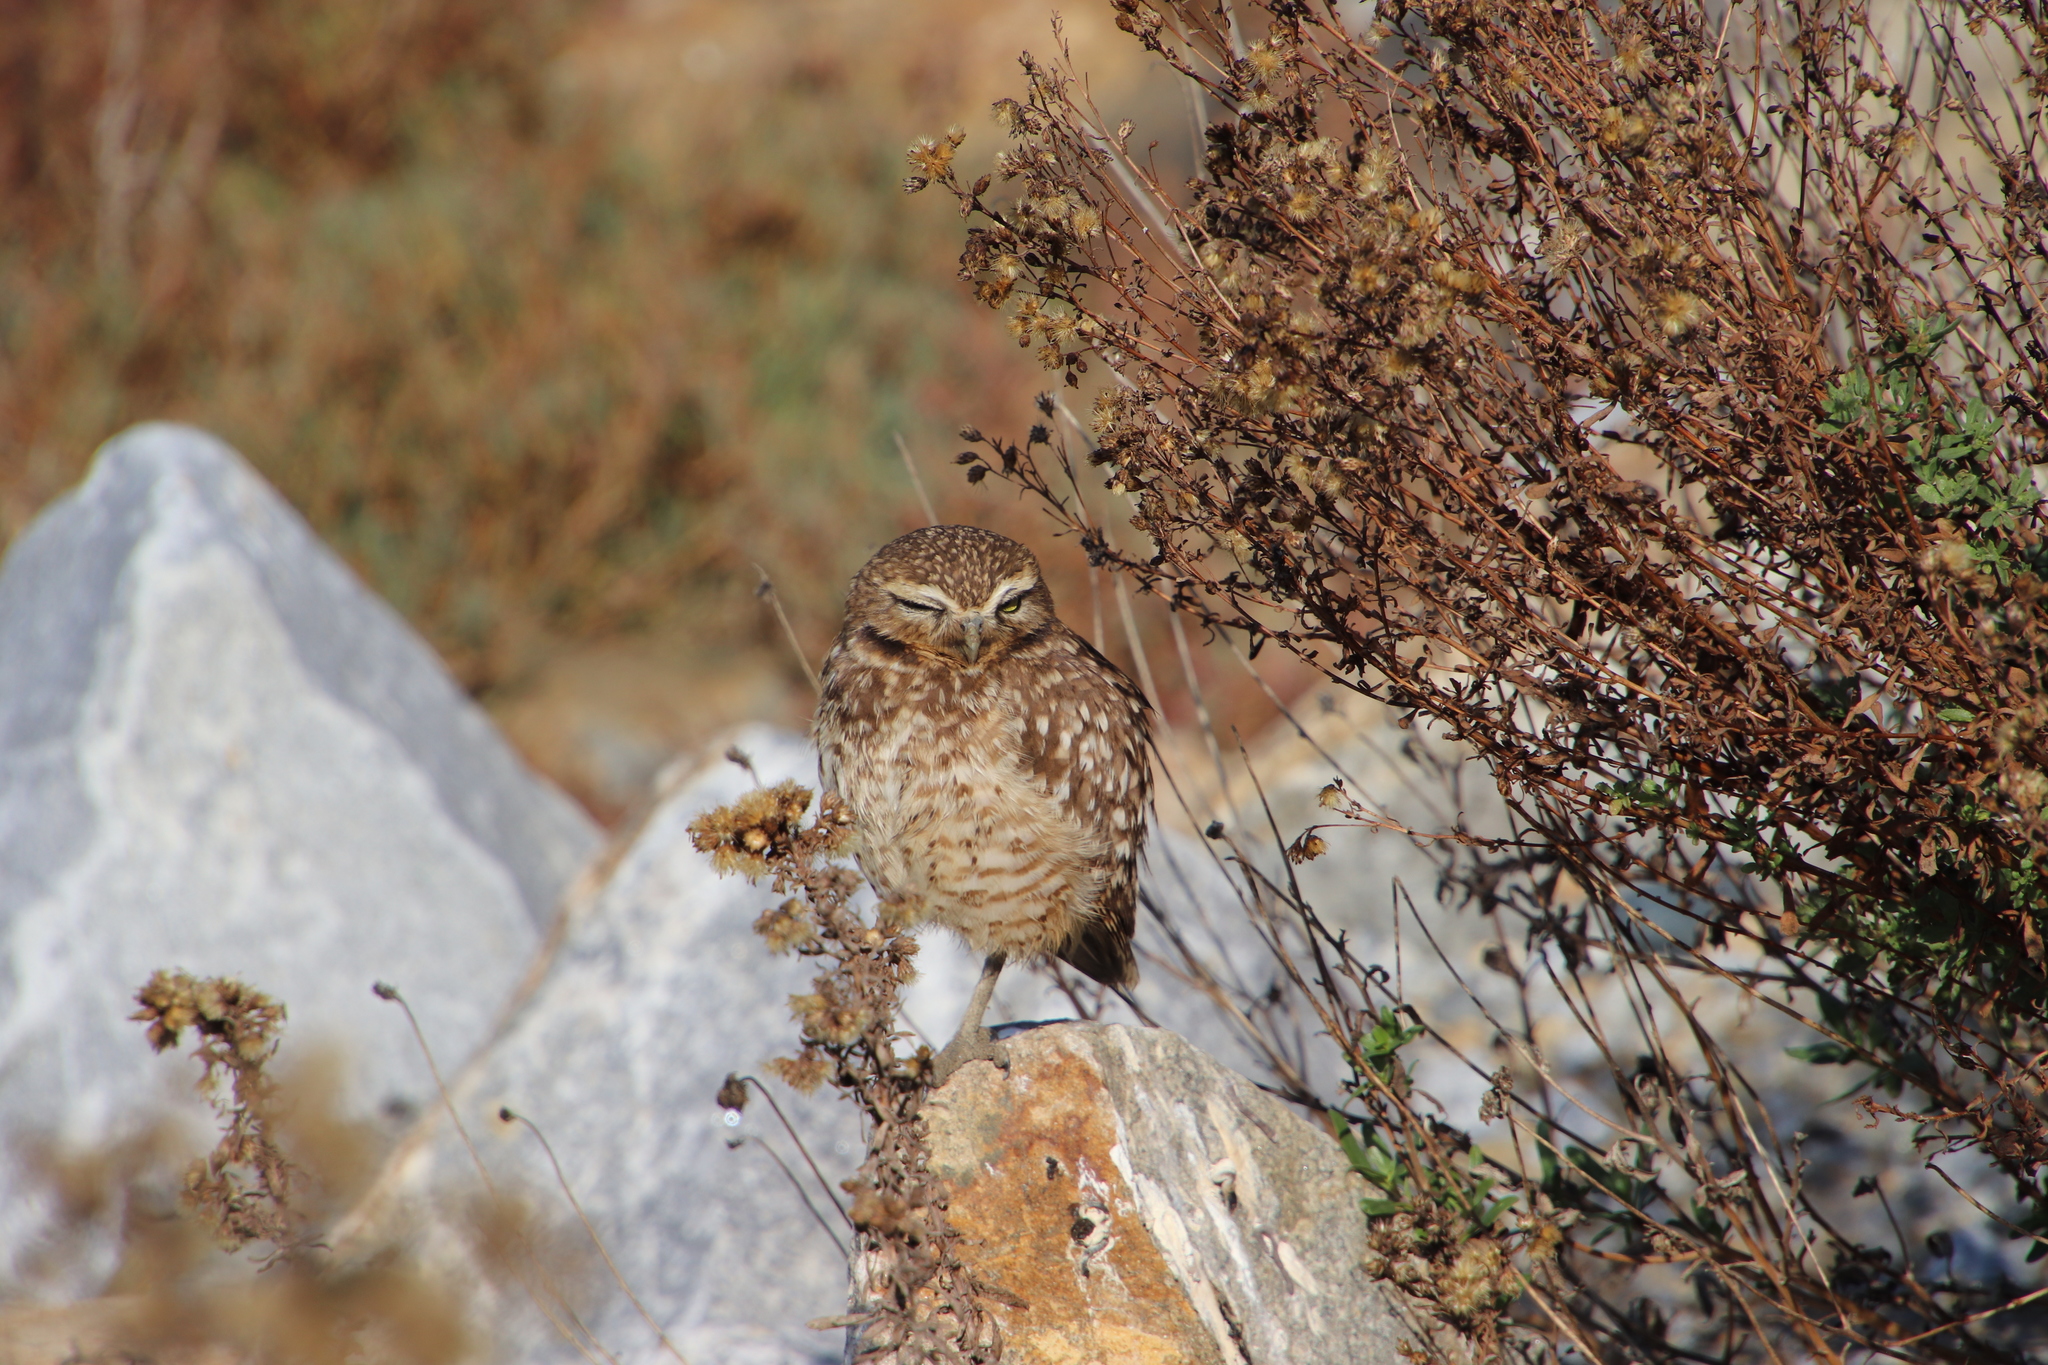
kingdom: Animalia
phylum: Chordata
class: Aves
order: Strigiformes
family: Strigidae
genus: Athene
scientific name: Athene cunicularia
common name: Burrowing owl
